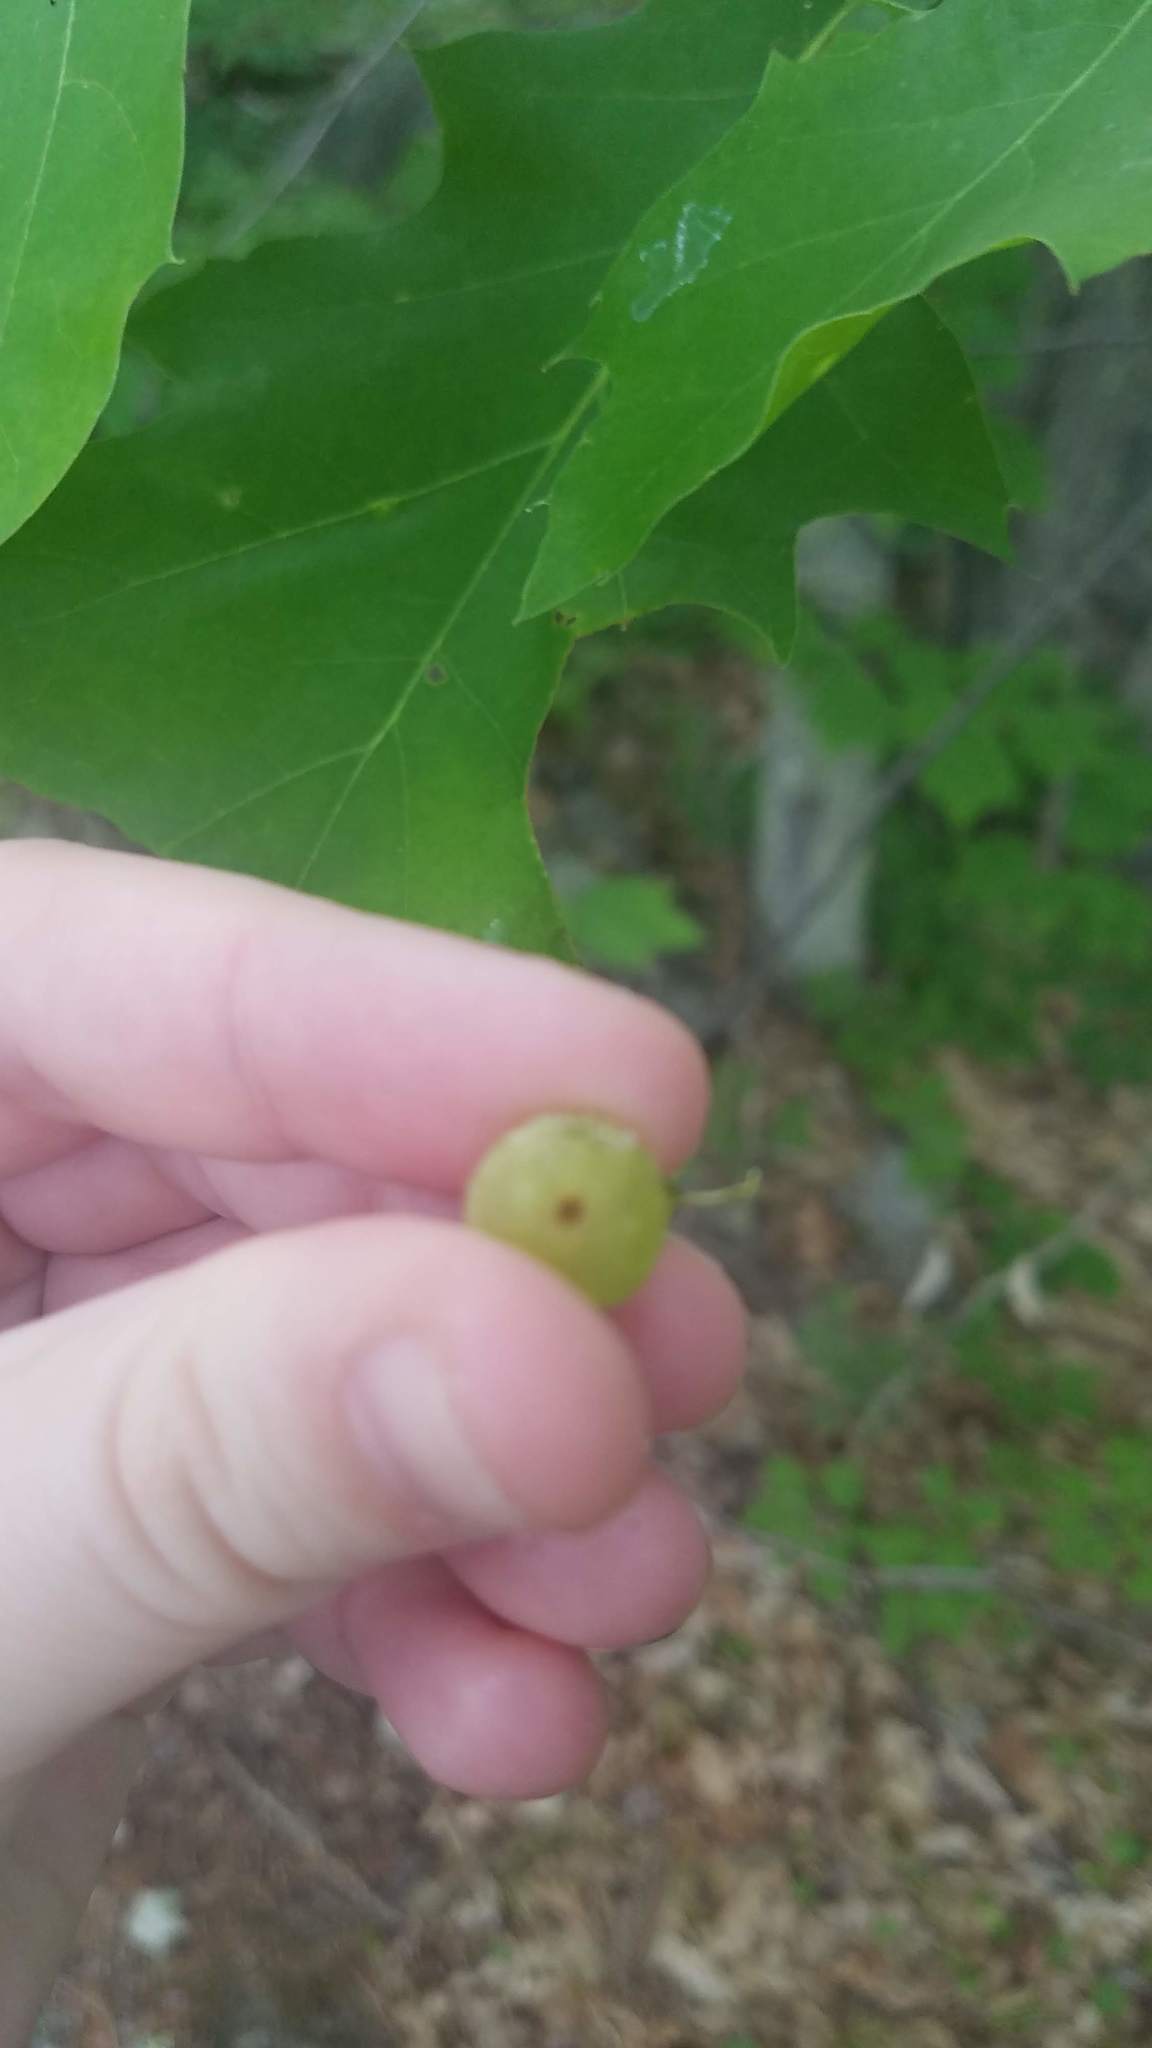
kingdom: Animalia
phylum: Arthropoda
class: Insecta
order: Hymenoptera
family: Cynipidae
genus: Dryocosmus
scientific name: Dryocosmus quercuspalustris
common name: Succulent oak gall wasp
